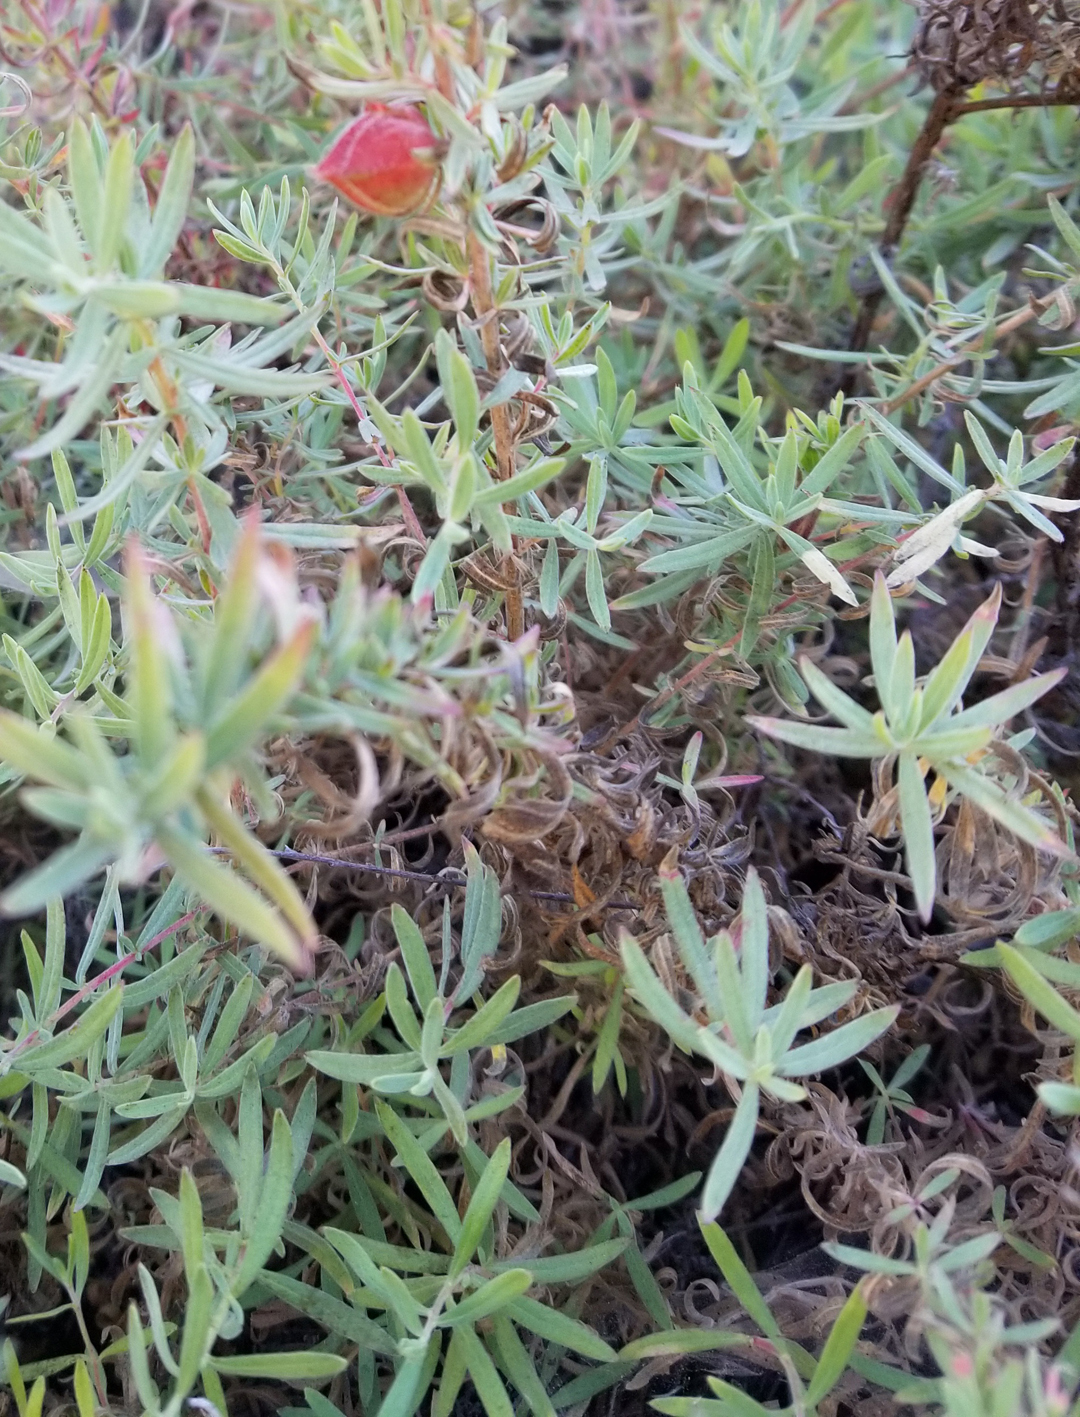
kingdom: Animalia
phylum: Arthropoda
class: Insecta
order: Diptera
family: Cecidomyiidae
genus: Contarinia
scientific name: Contarinia zauschneriae
